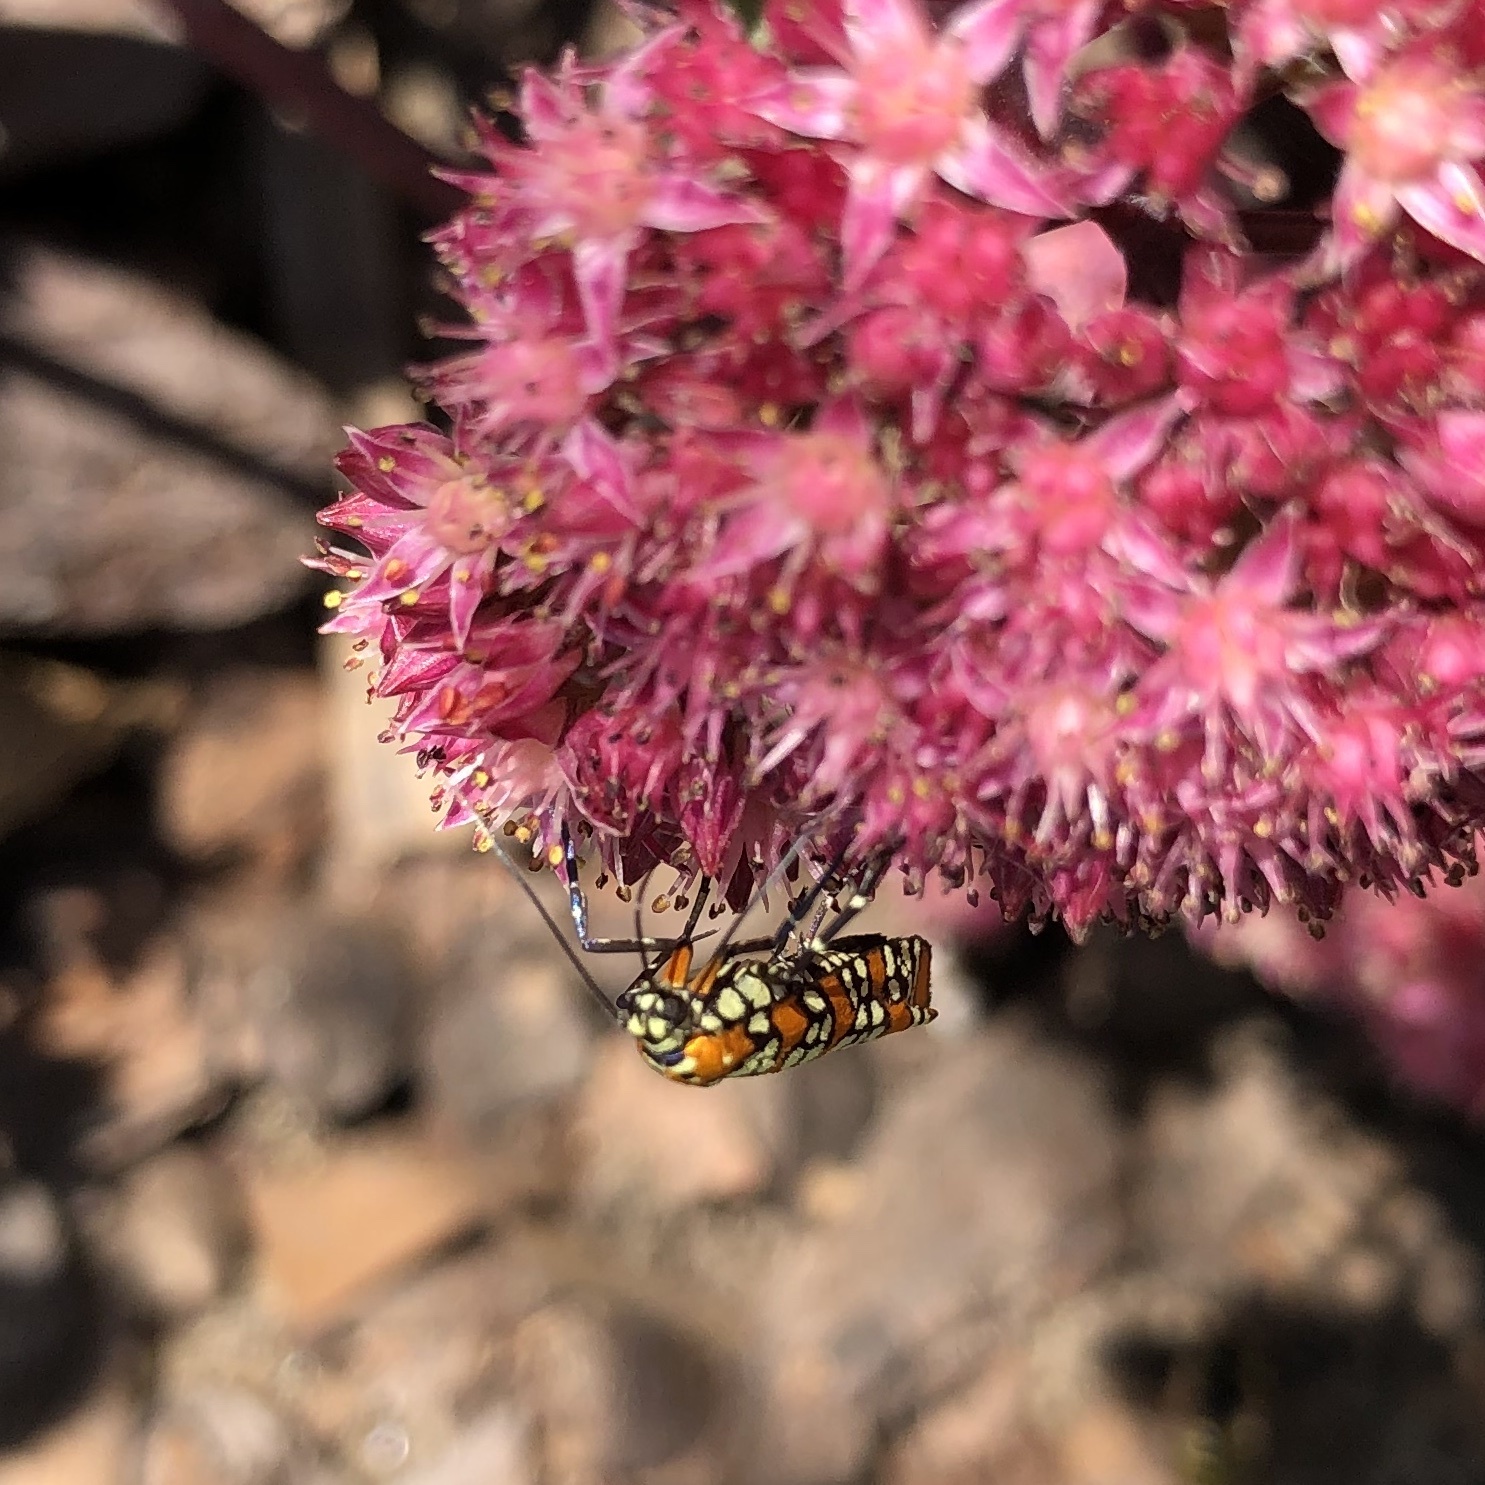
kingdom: Animalia
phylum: Arthropoda
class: Insecta
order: Lepidoptera
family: Attevidae
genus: Atteva
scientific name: Atteva punctella
